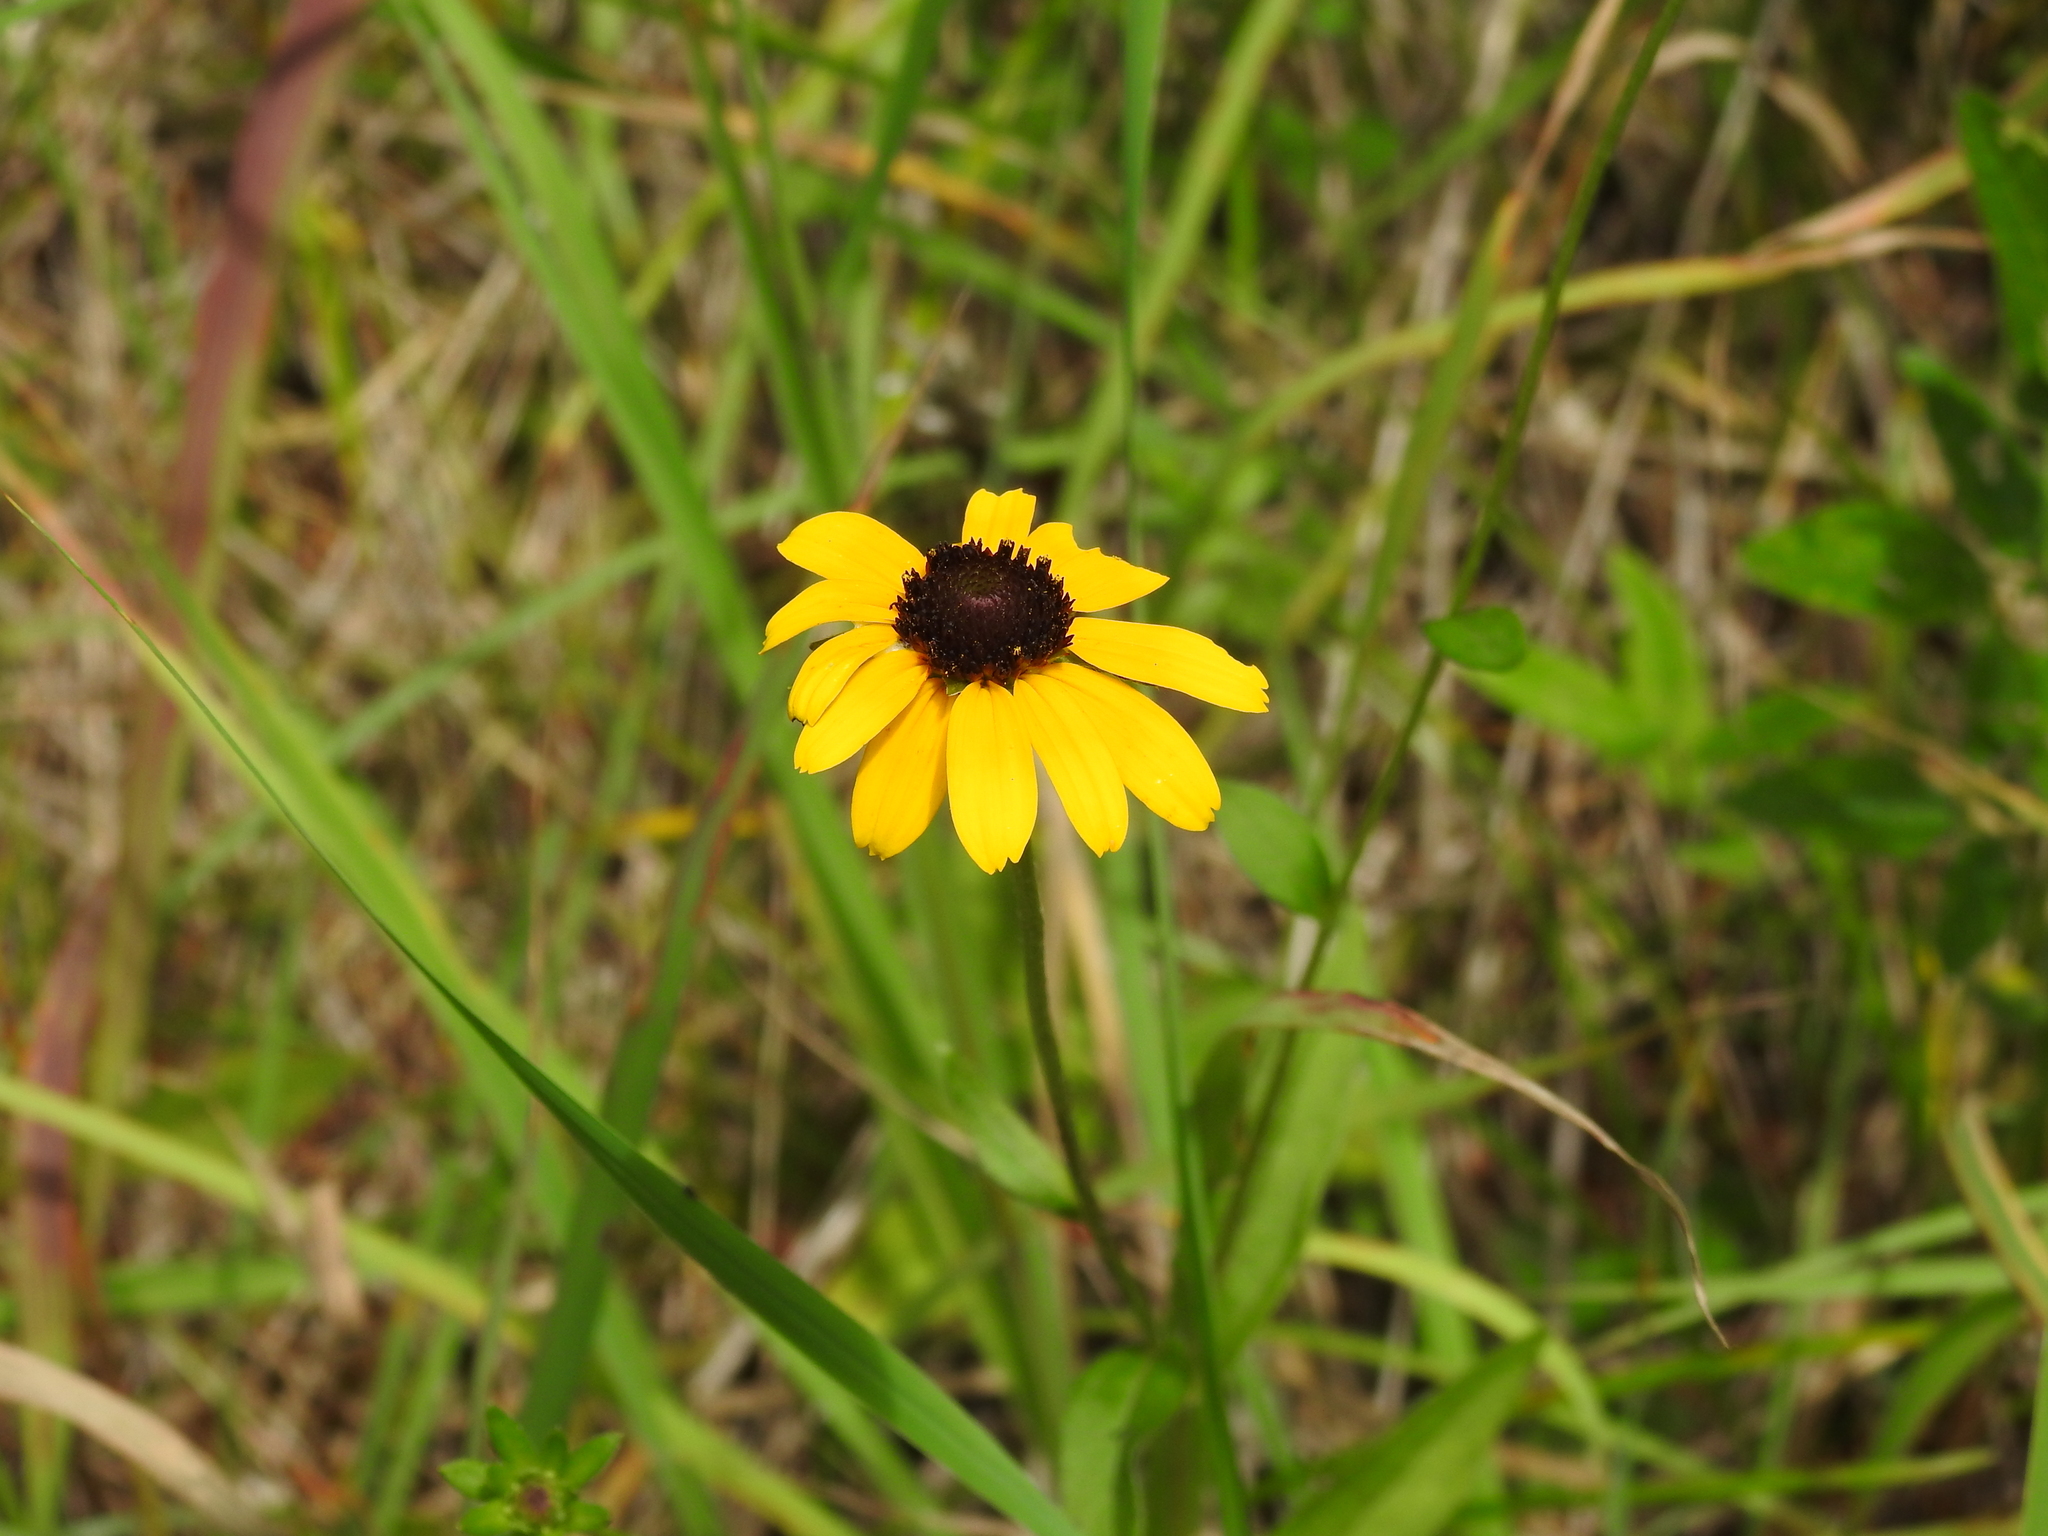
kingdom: Plantae
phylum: Tracheophyta
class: Magnoliopsida
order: Asterales
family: Asteraceae
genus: Rudbeckia
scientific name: Rudbeckia hirta
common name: Black-eyed-susan
